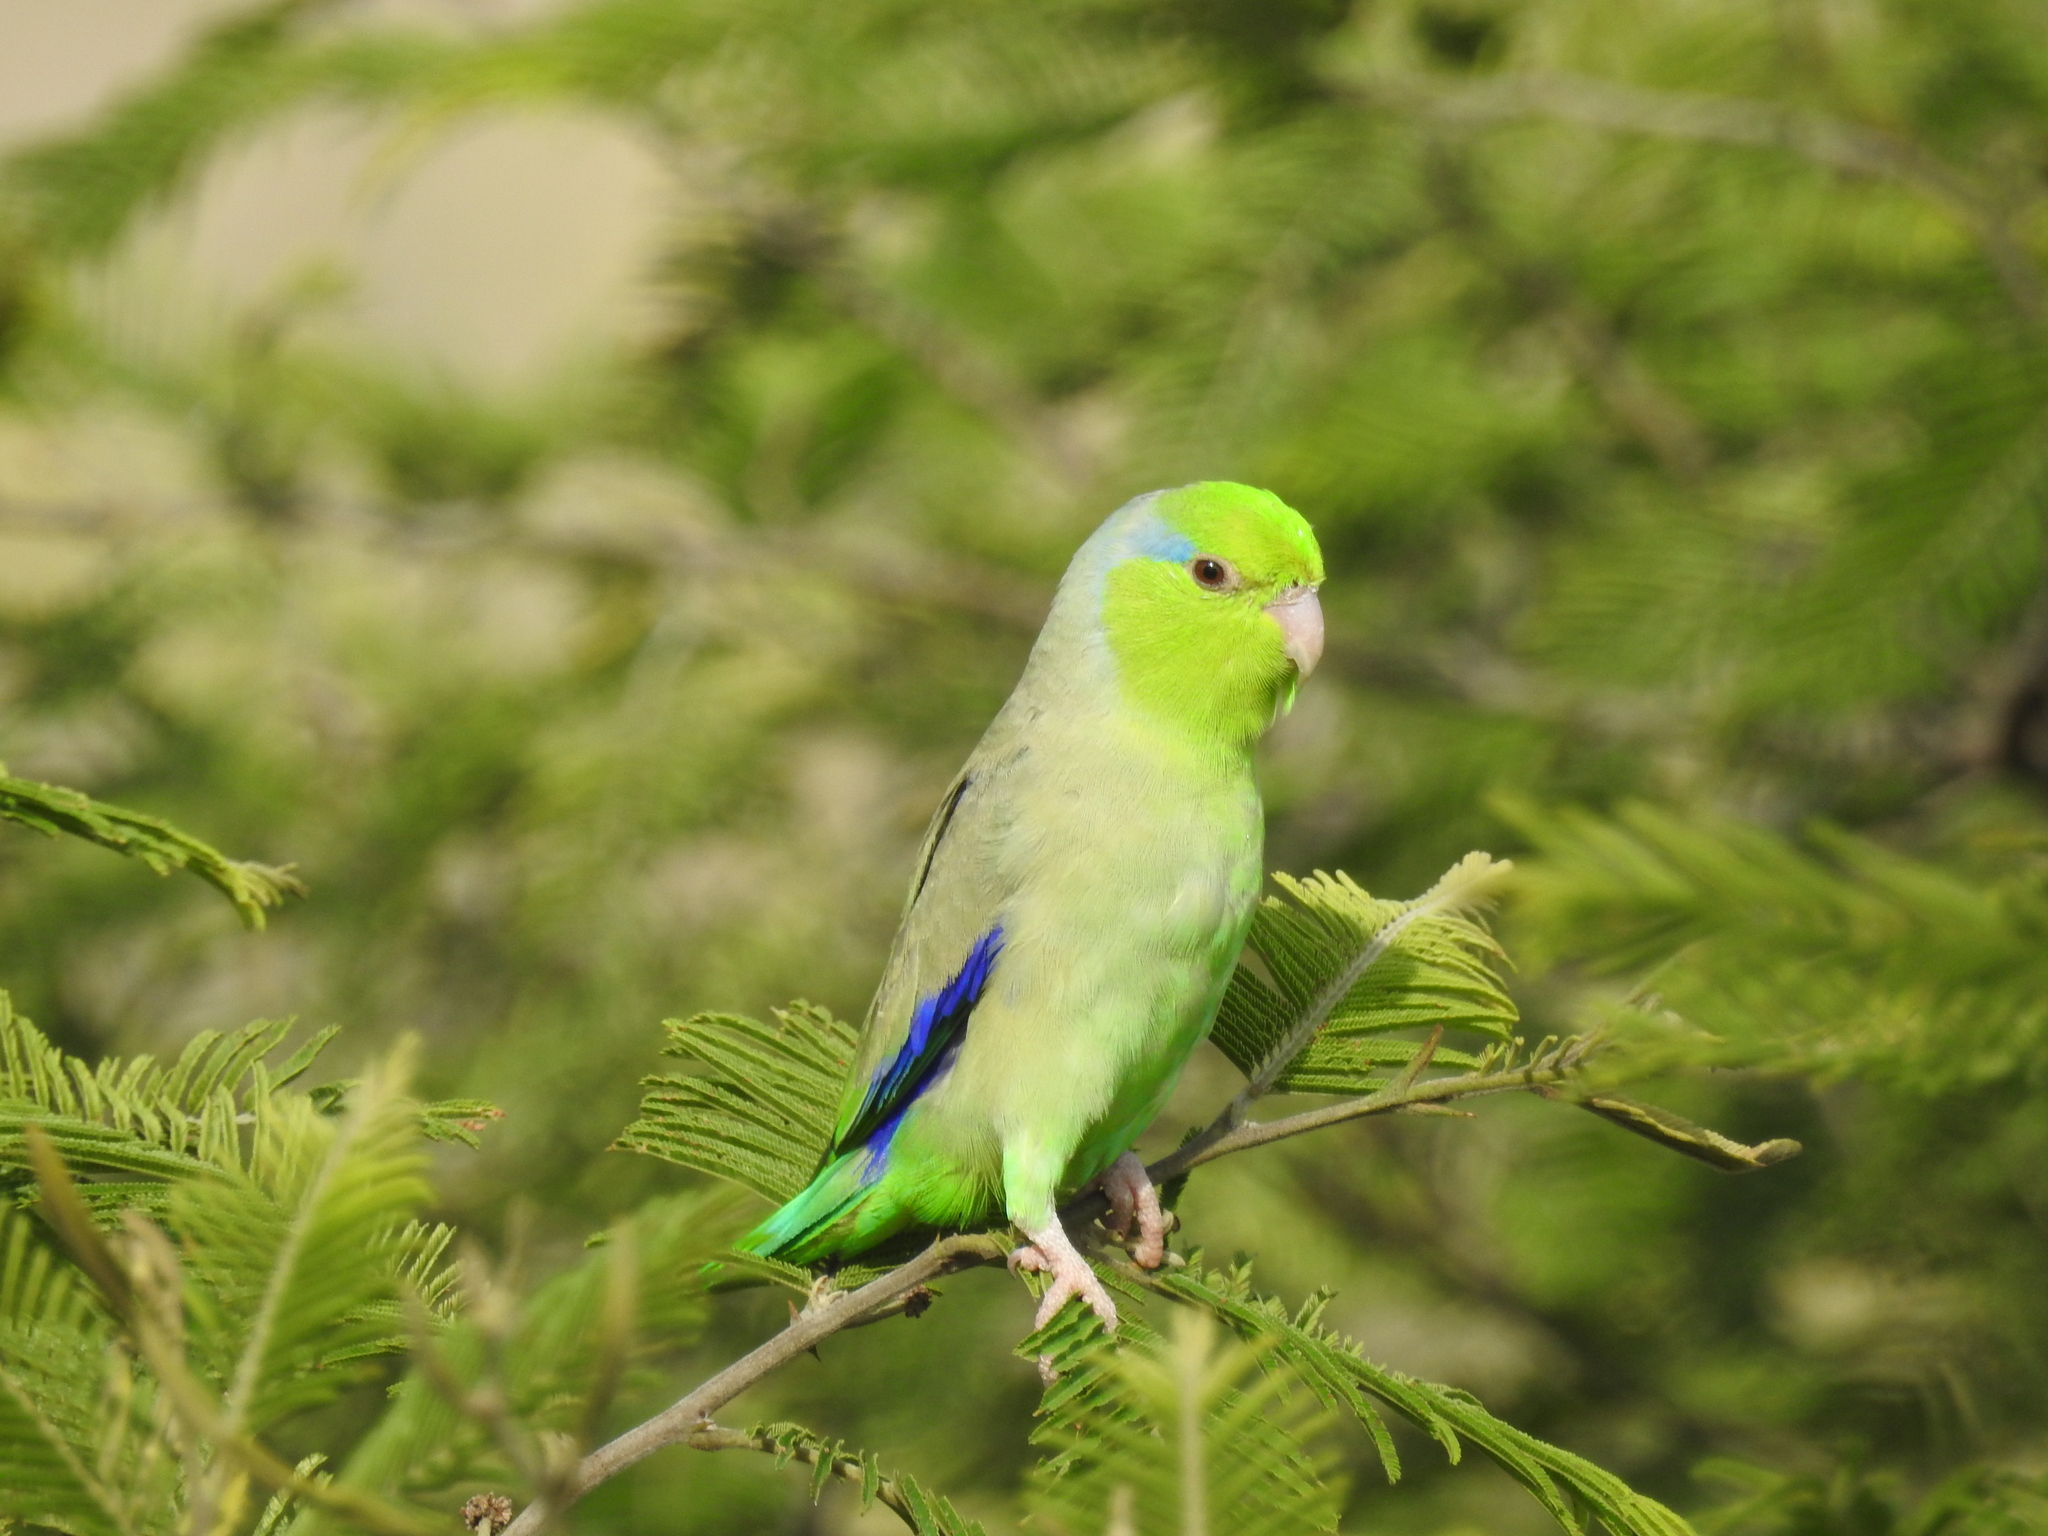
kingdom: Animalia
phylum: Chordata
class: Aves
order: Psittaciformes
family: Psittacidae
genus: Forpus
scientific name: Forpus coelestis
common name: Pacific parrotlet
